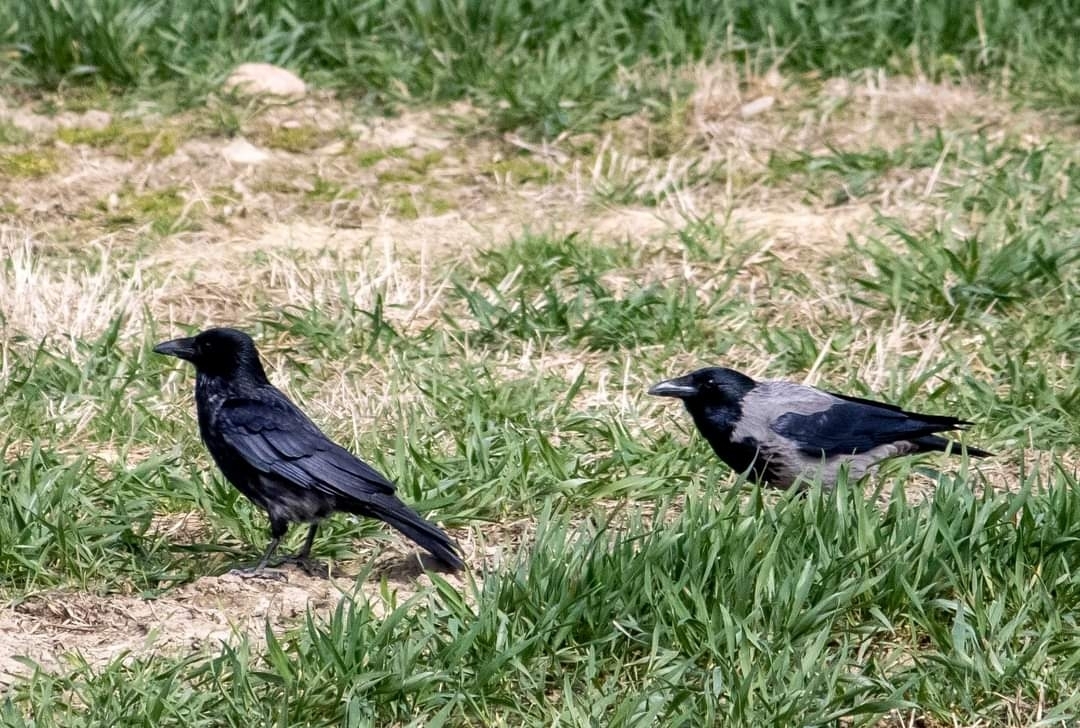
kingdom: Animalia
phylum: Chordata
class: Aves
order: Passeriformes
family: Corvidae
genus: Corvus
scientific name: Corvus corone
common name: Carrion crow
